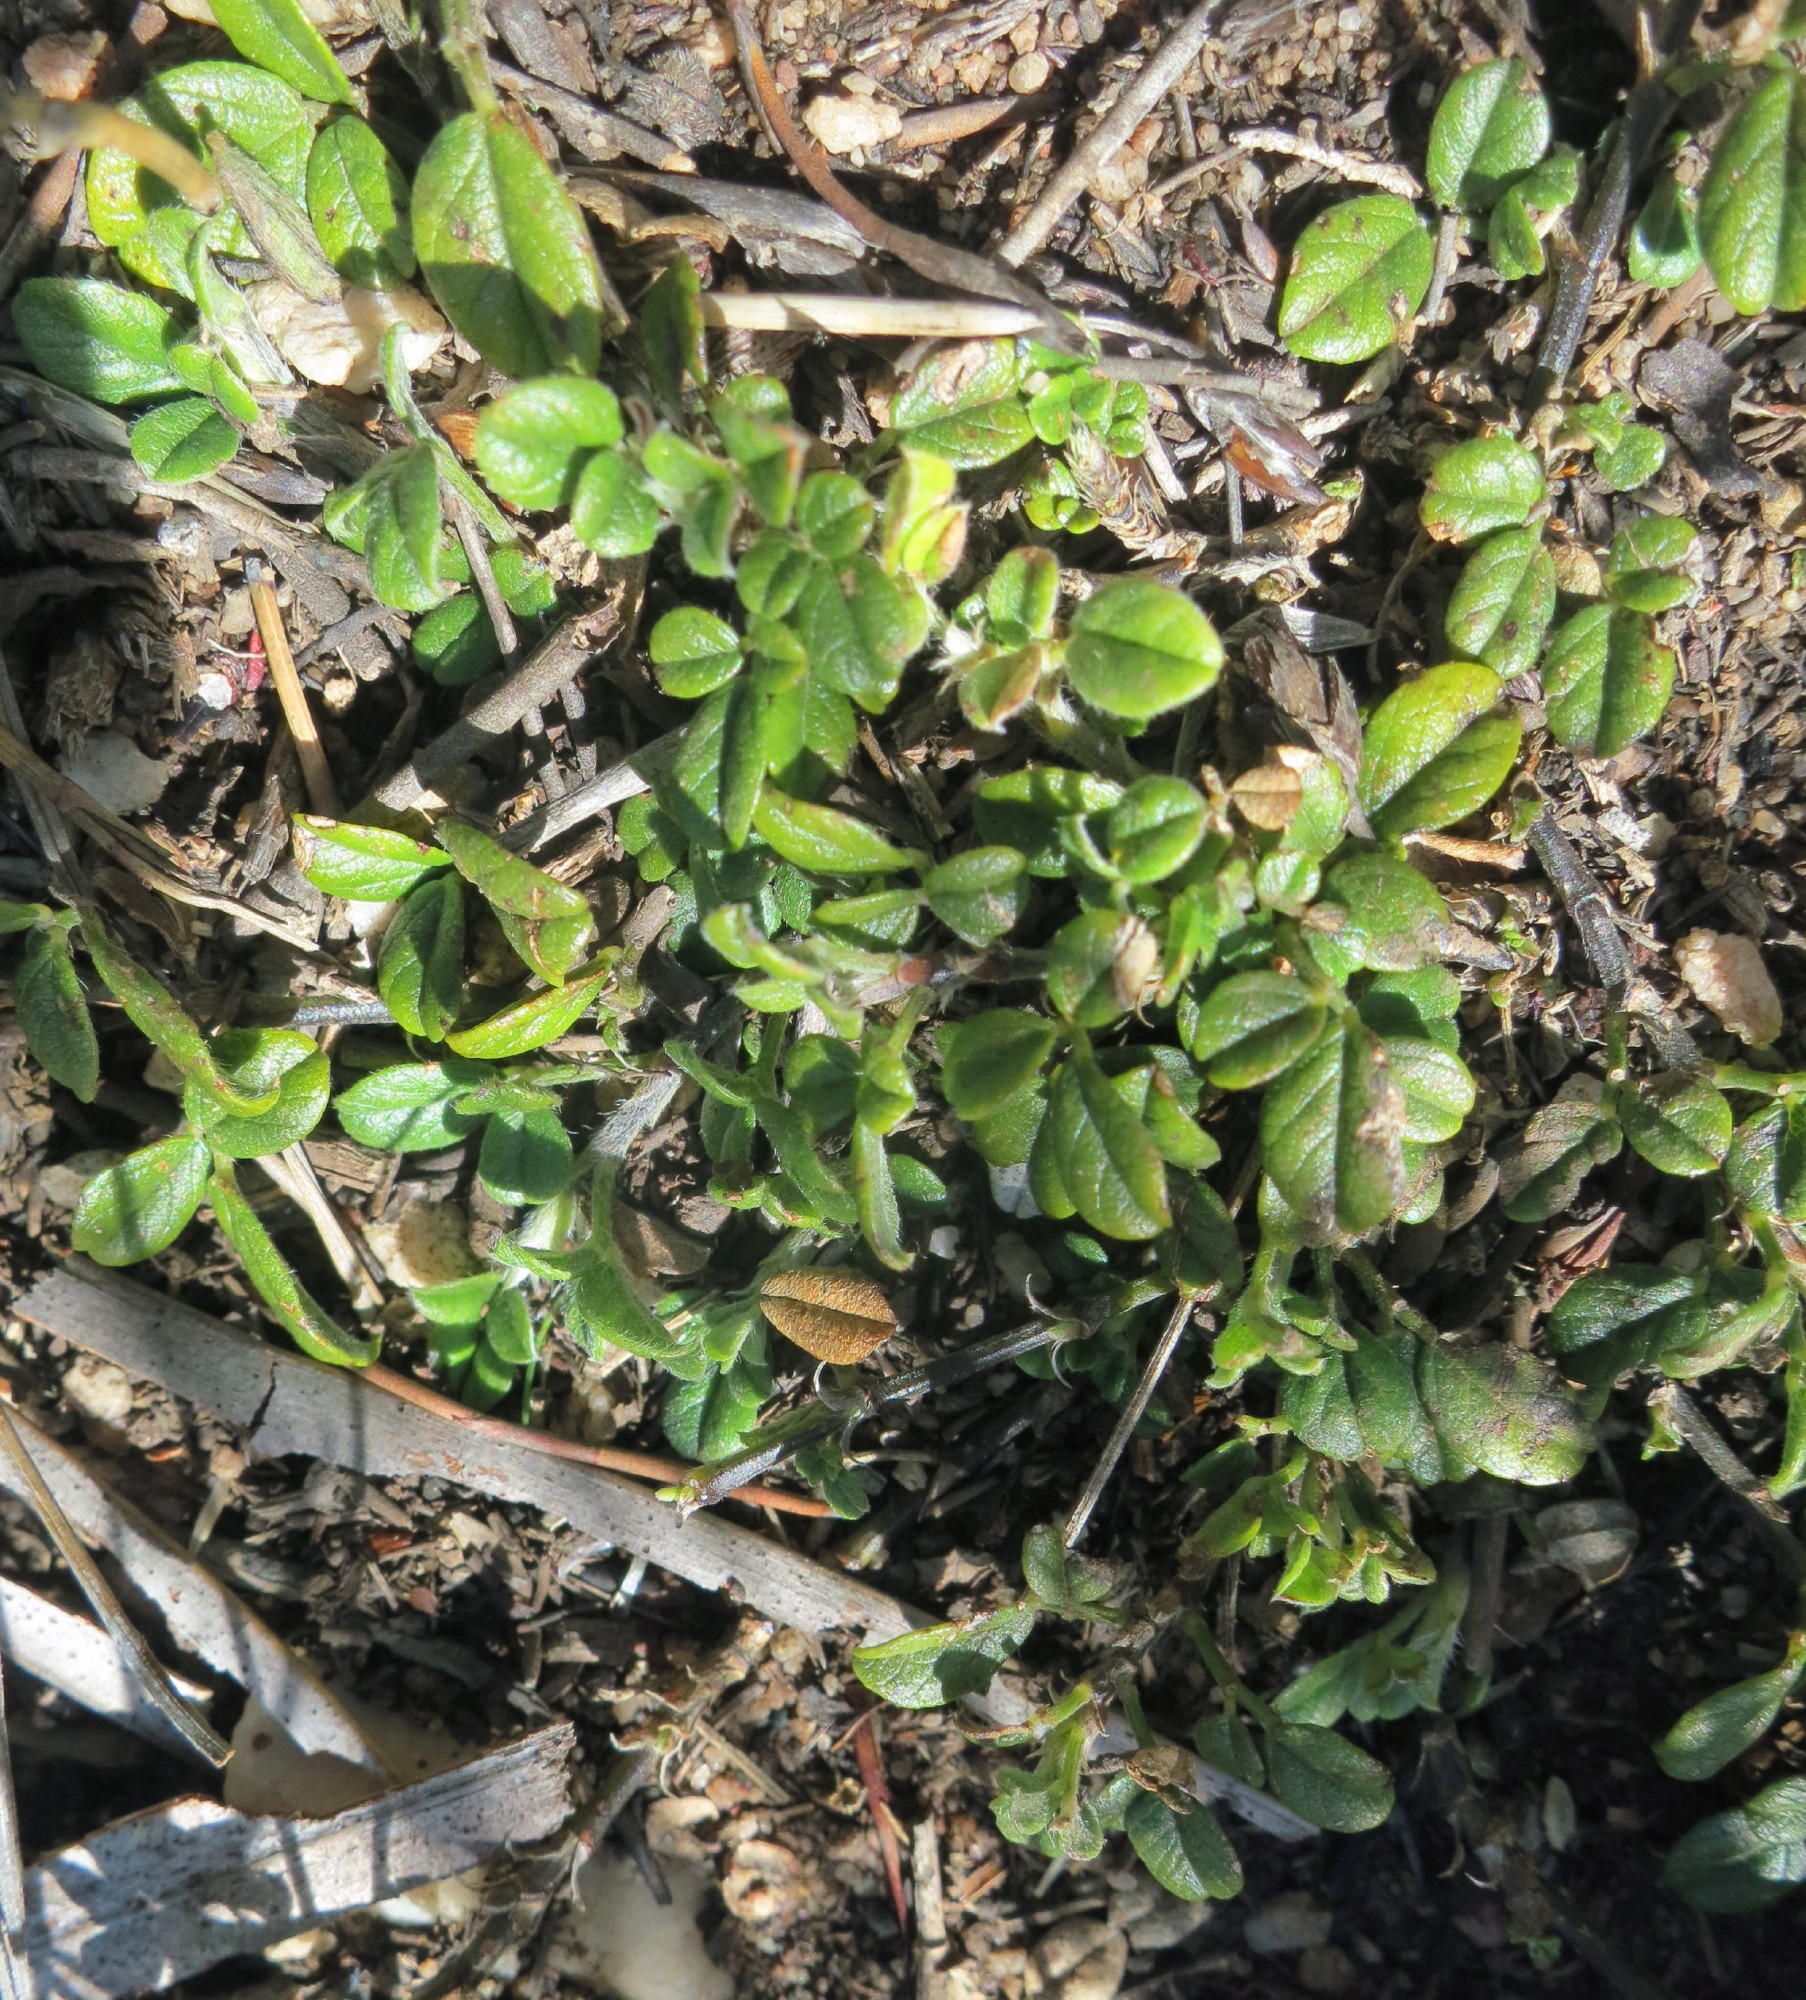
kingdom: Plantae
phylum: Tracheophyta
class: Magnoliopsida
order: Fabales
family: Fabaceae
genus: Psoralea
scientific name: Psoralea swartbergensis
